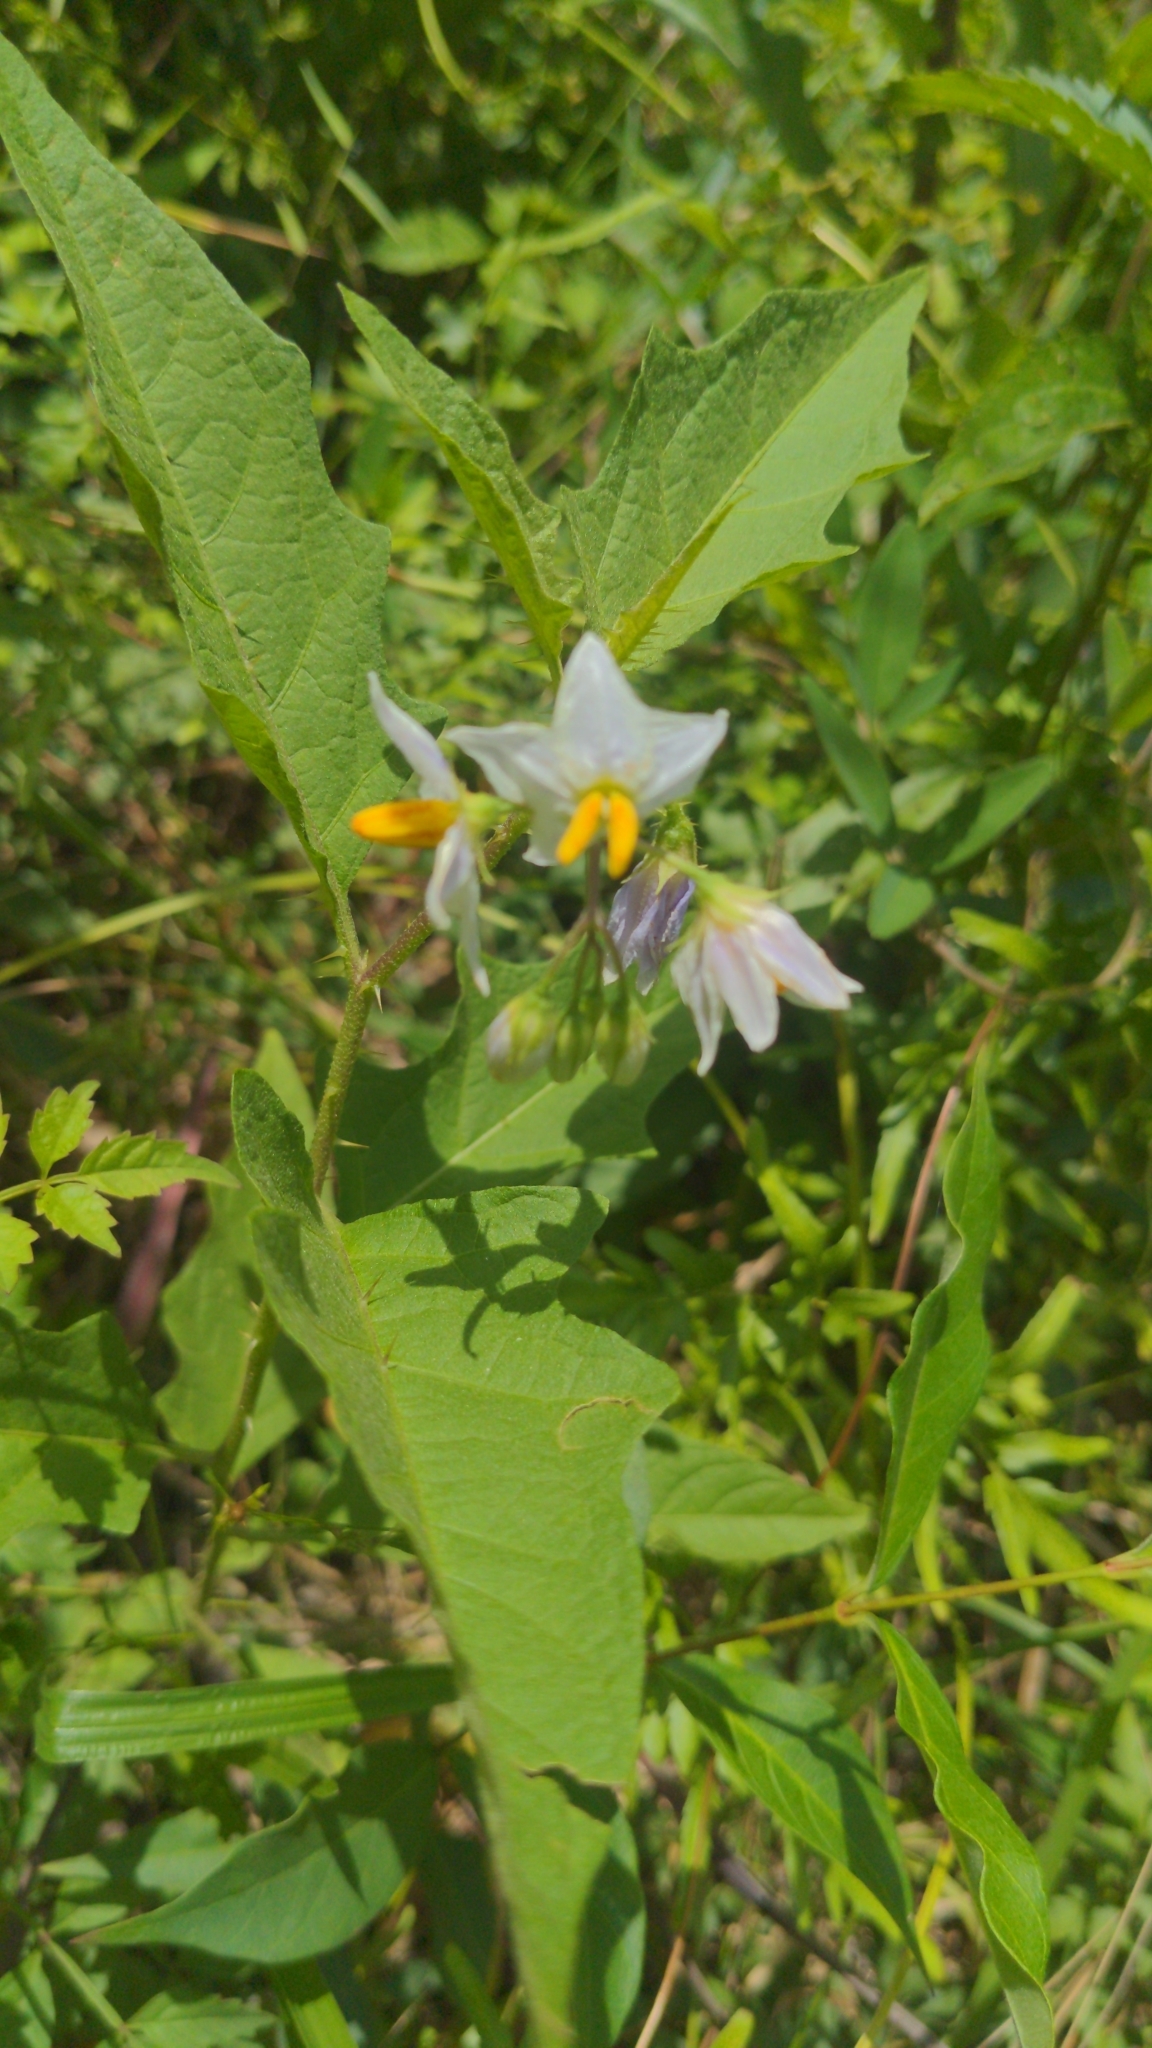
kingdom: Plantae
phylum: Tracheophyta
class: Magnoliopsida
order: Solanales
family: Solanaceae
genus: Solanum
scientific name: Solanum carolinense
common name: Horse-nettle
